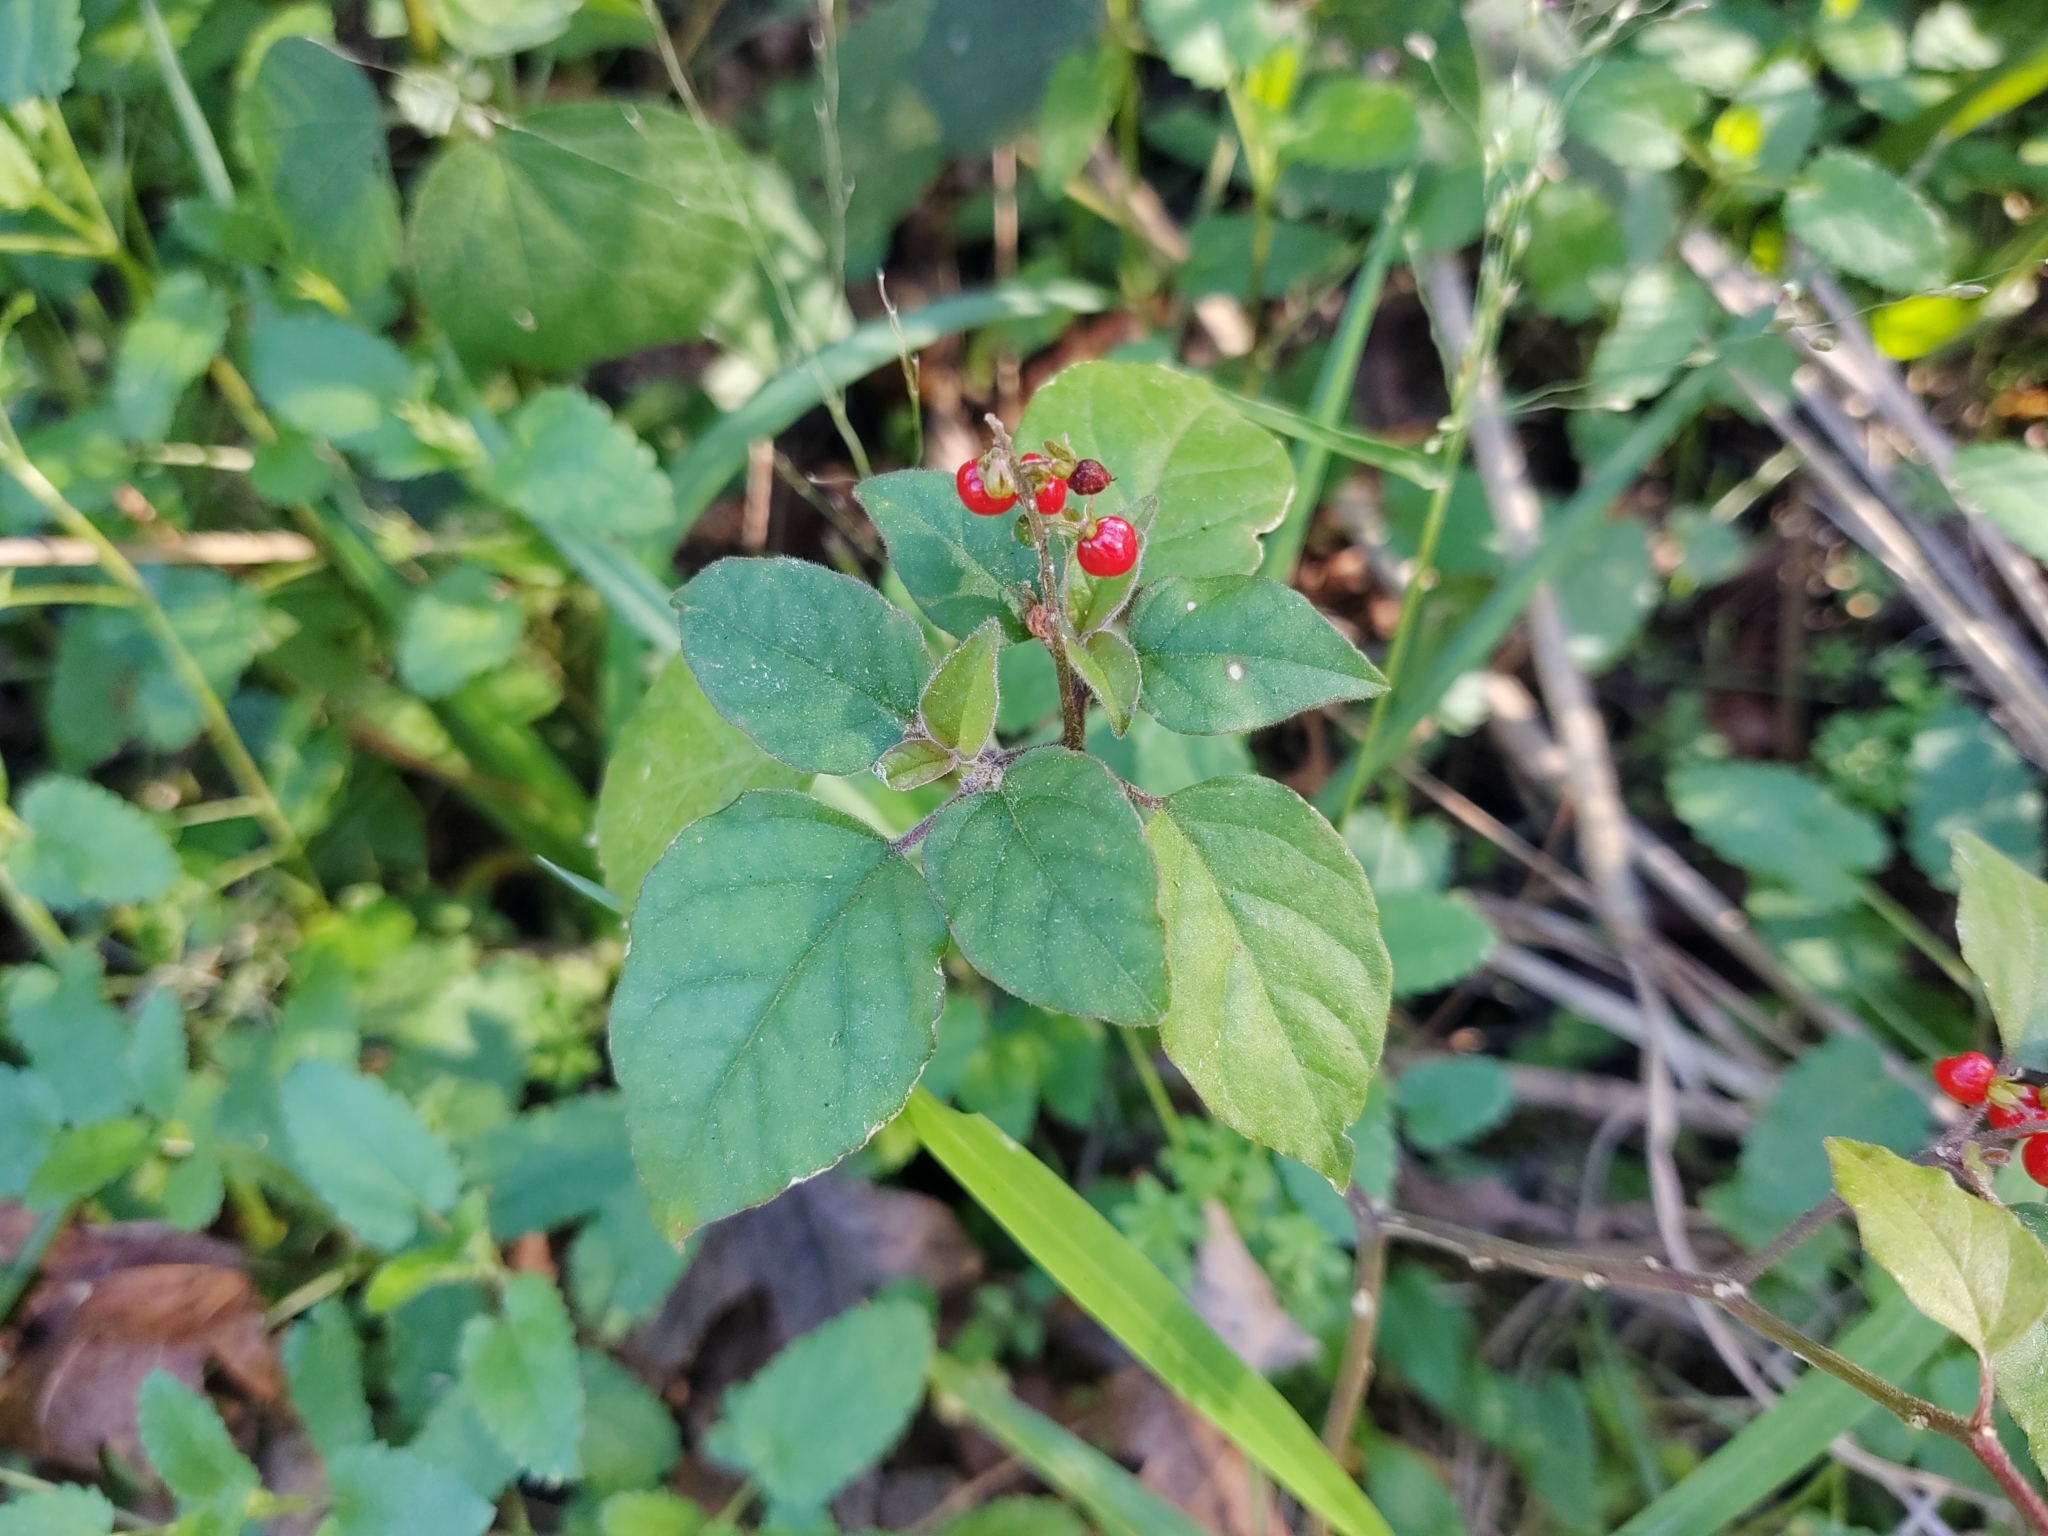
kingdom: Plantae
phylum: Tracheophyta
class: Magnoliopsida
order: Caryophyllales
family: Phytolaccaceae
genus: Rivina
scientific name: Rivina humilis
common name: Rougeplant
